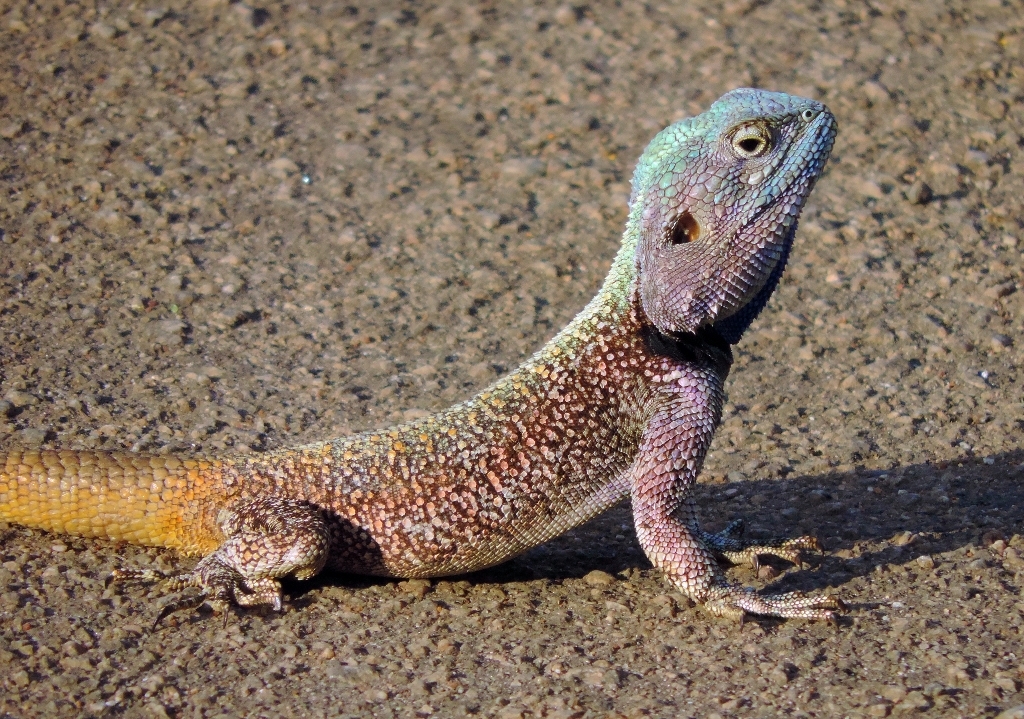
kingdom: Animalia
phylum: Chordata
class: Squamata
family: Agamidae
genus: Acanthocercus
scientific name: Acanthocercus atricollis
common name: Southern tree agama
